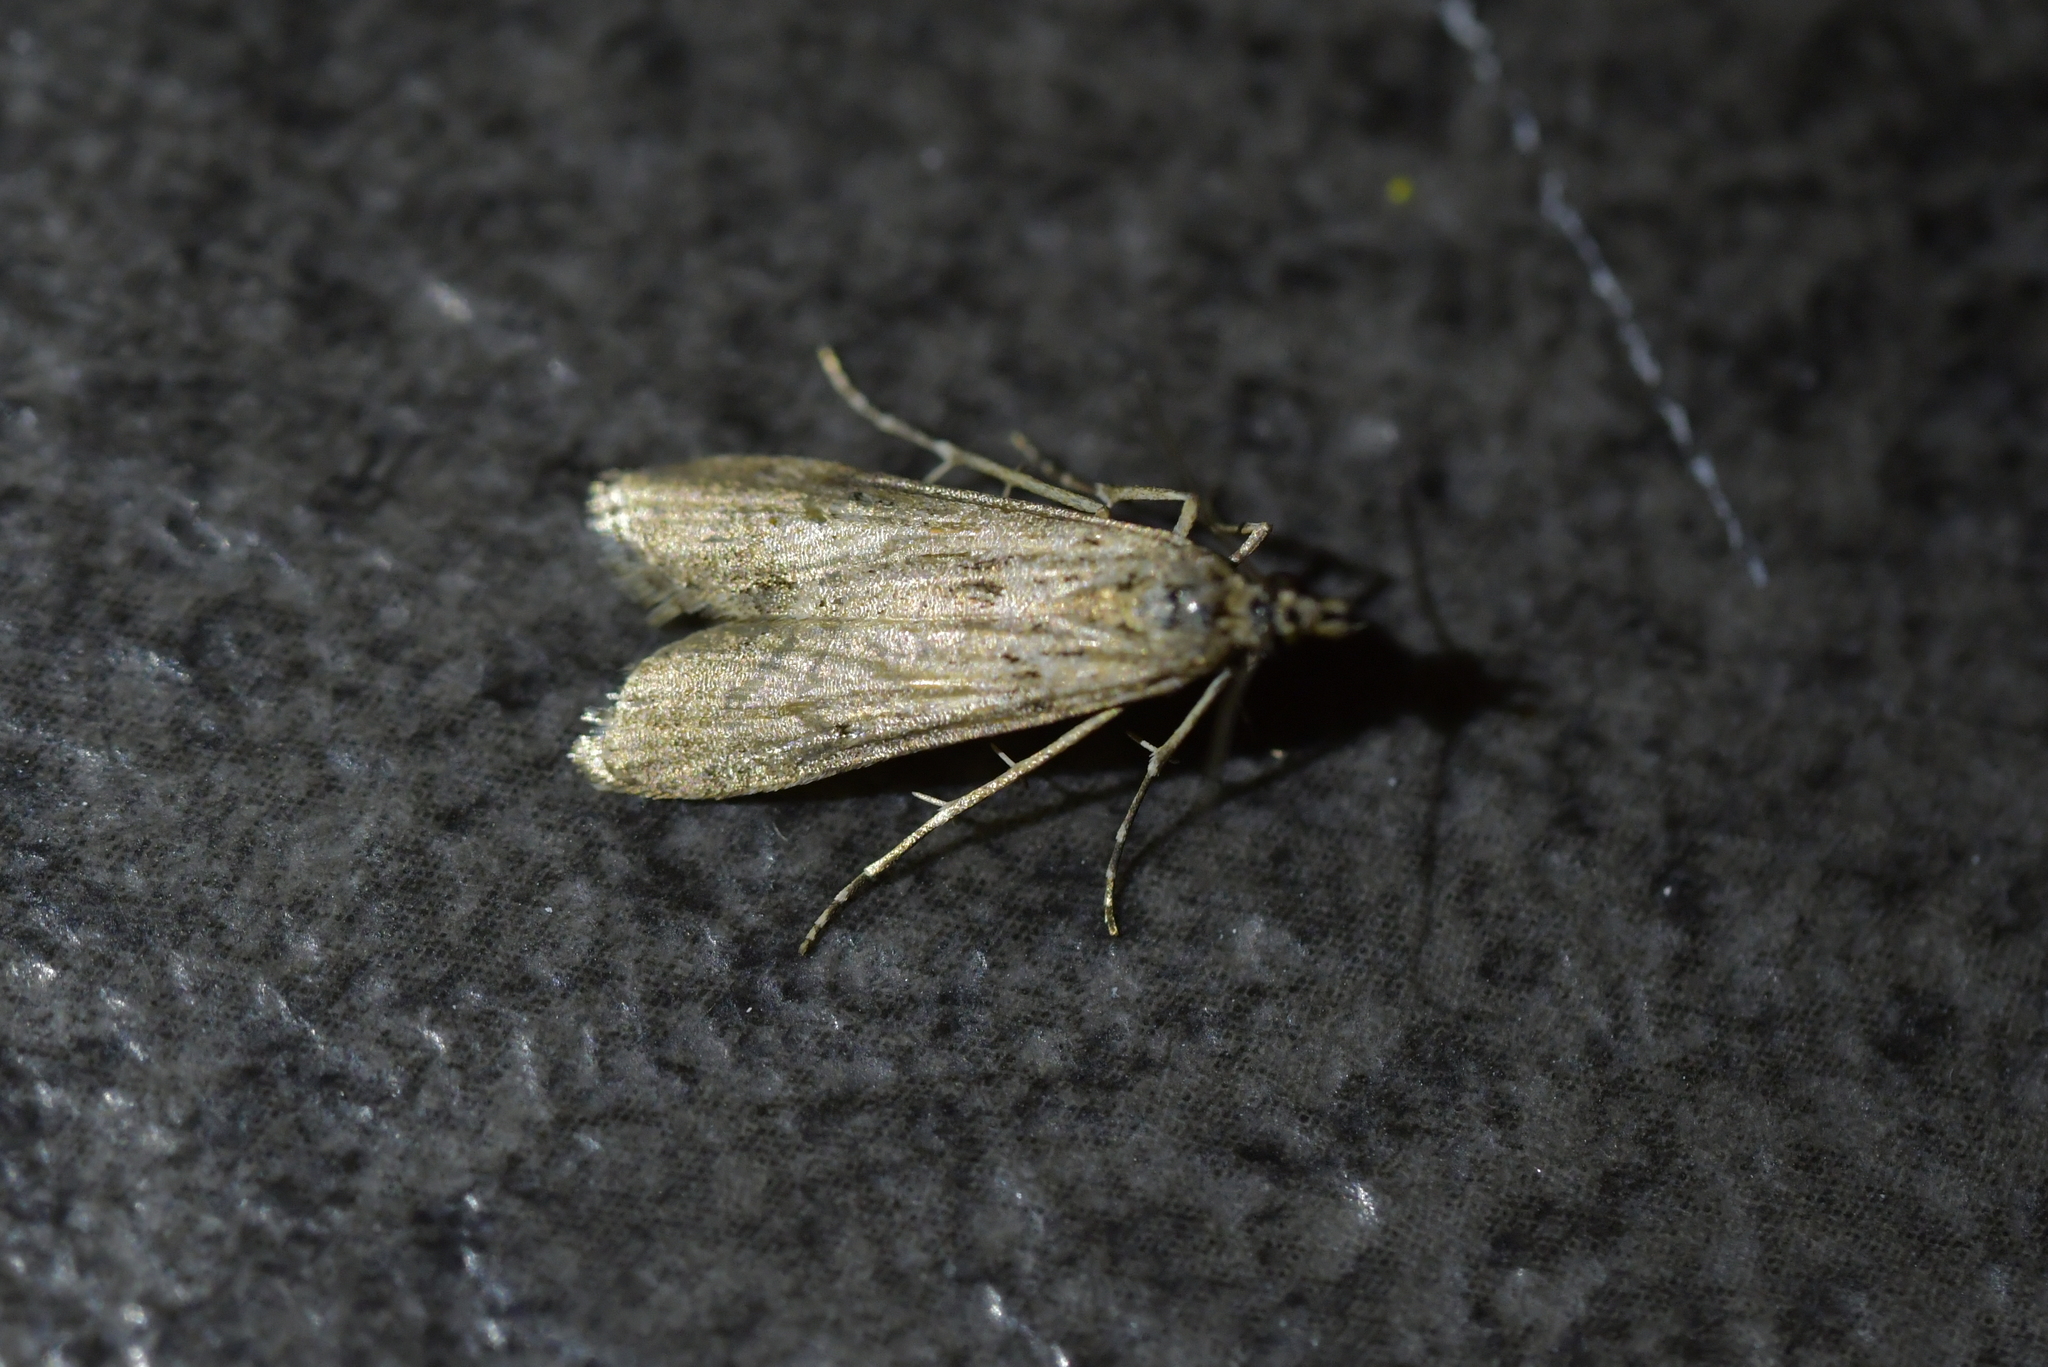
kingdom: Animalia
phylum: Arthropoda
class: Insecta
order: Lepidoptera
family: Crambidae
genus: Eudonia
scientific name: Eudonia leptalea
